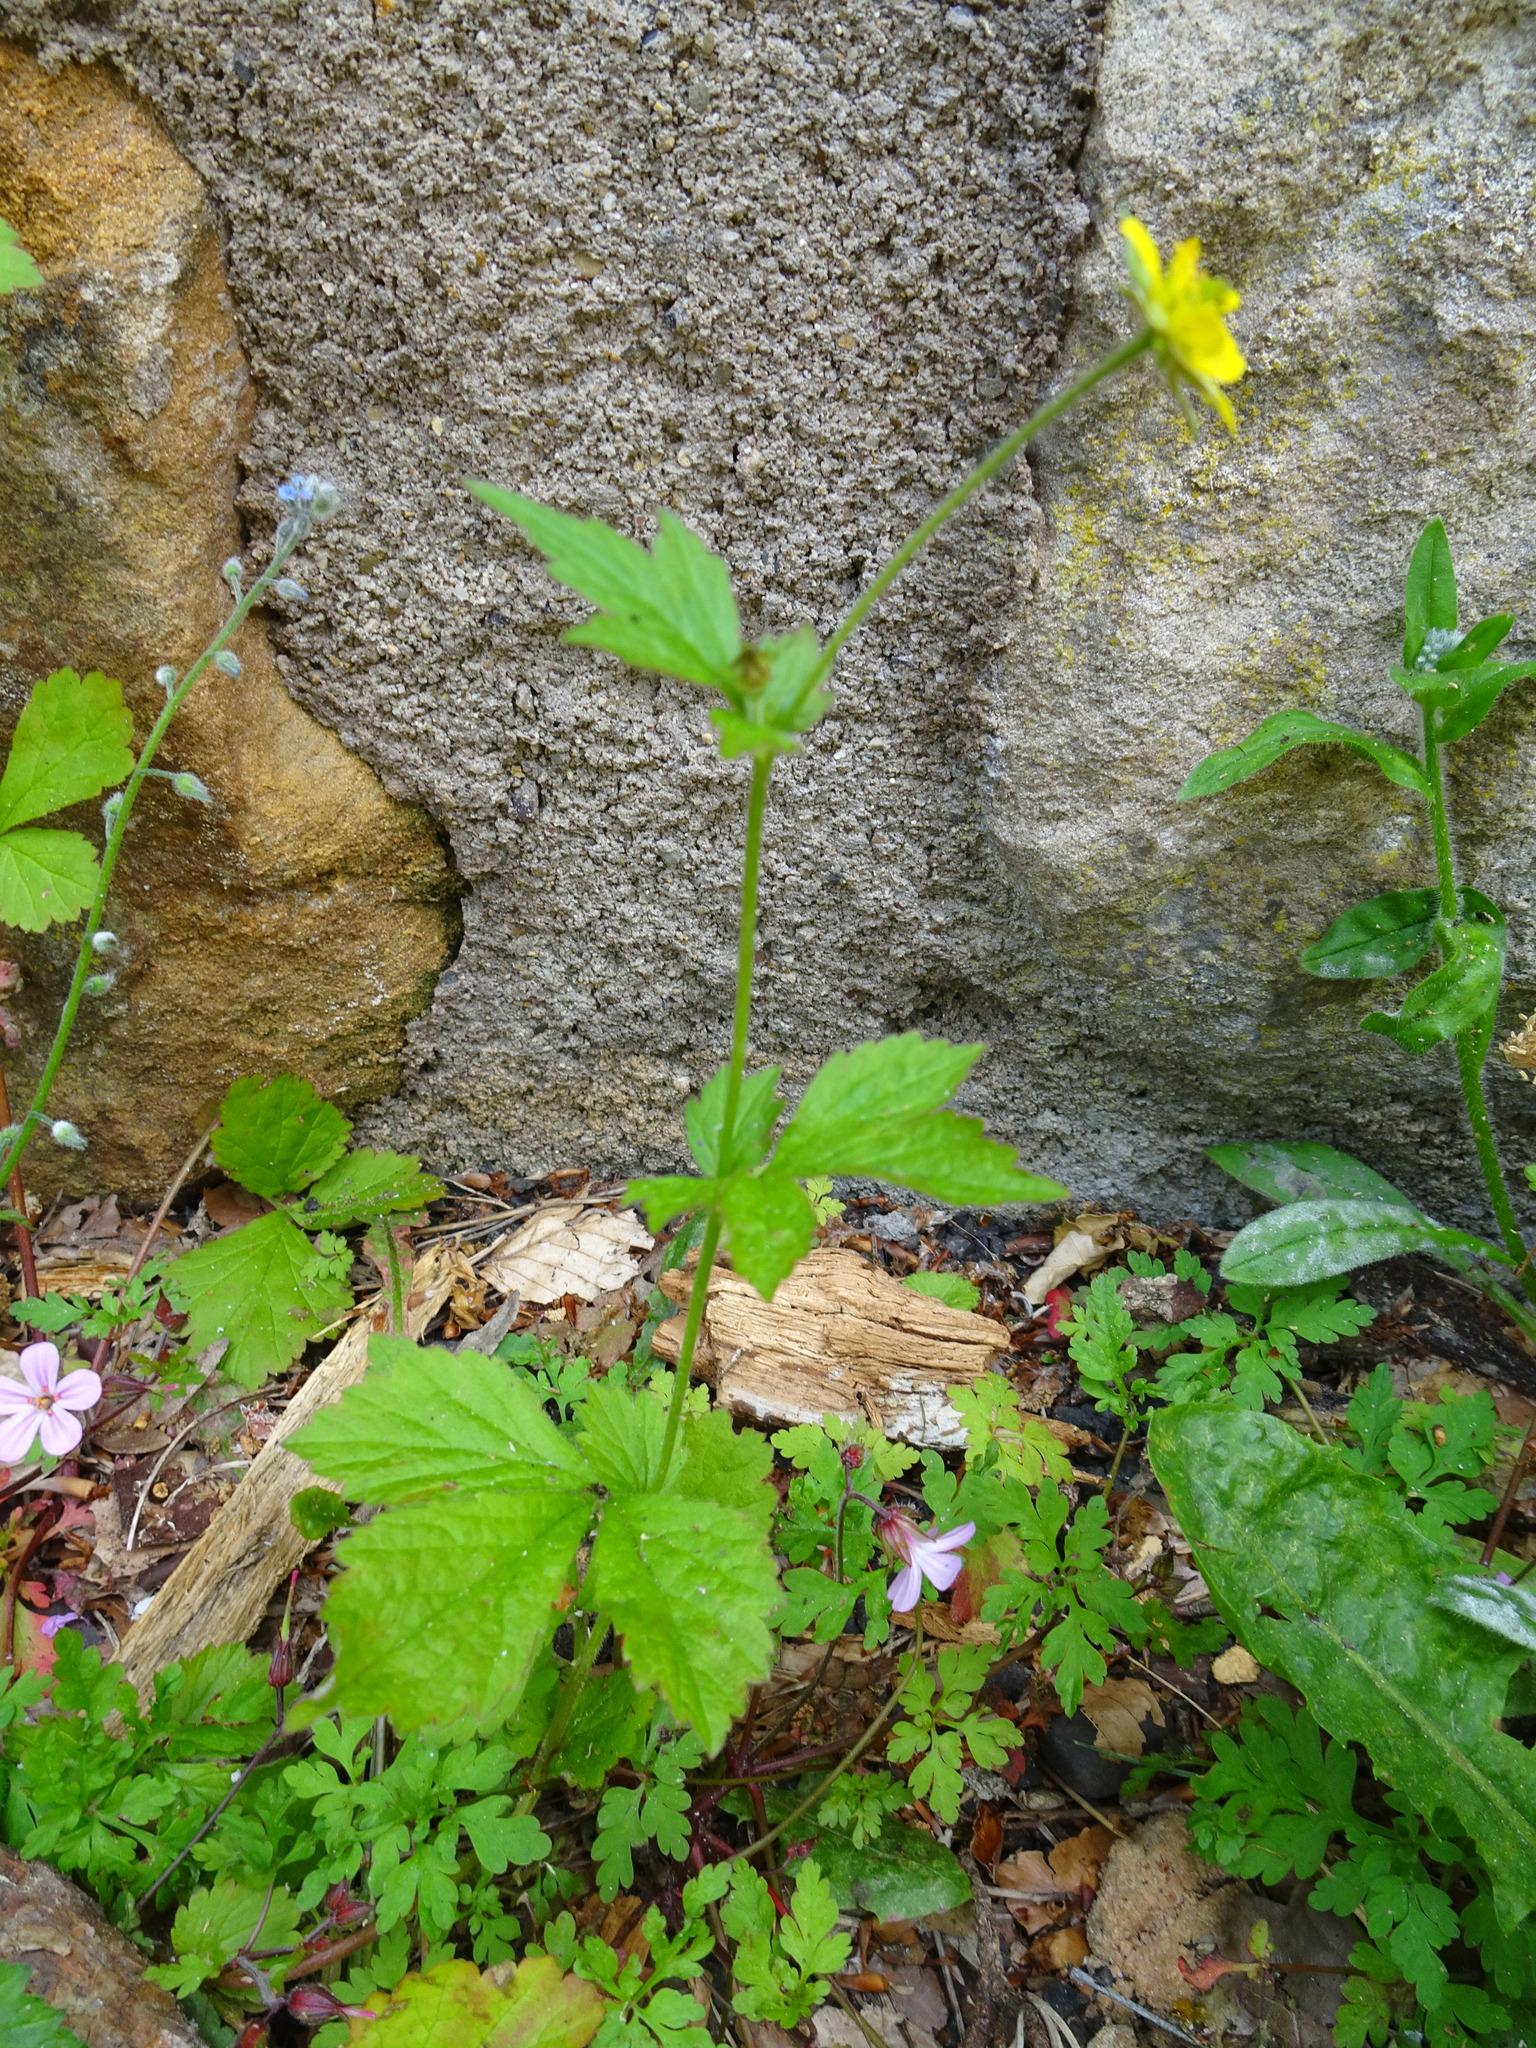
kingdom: Plantae
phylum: Tracheophyta
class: Magnoliopsida
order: Rosales
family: Rosaceae
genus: Geum
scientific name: Geum urbanum
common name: Wood avens
